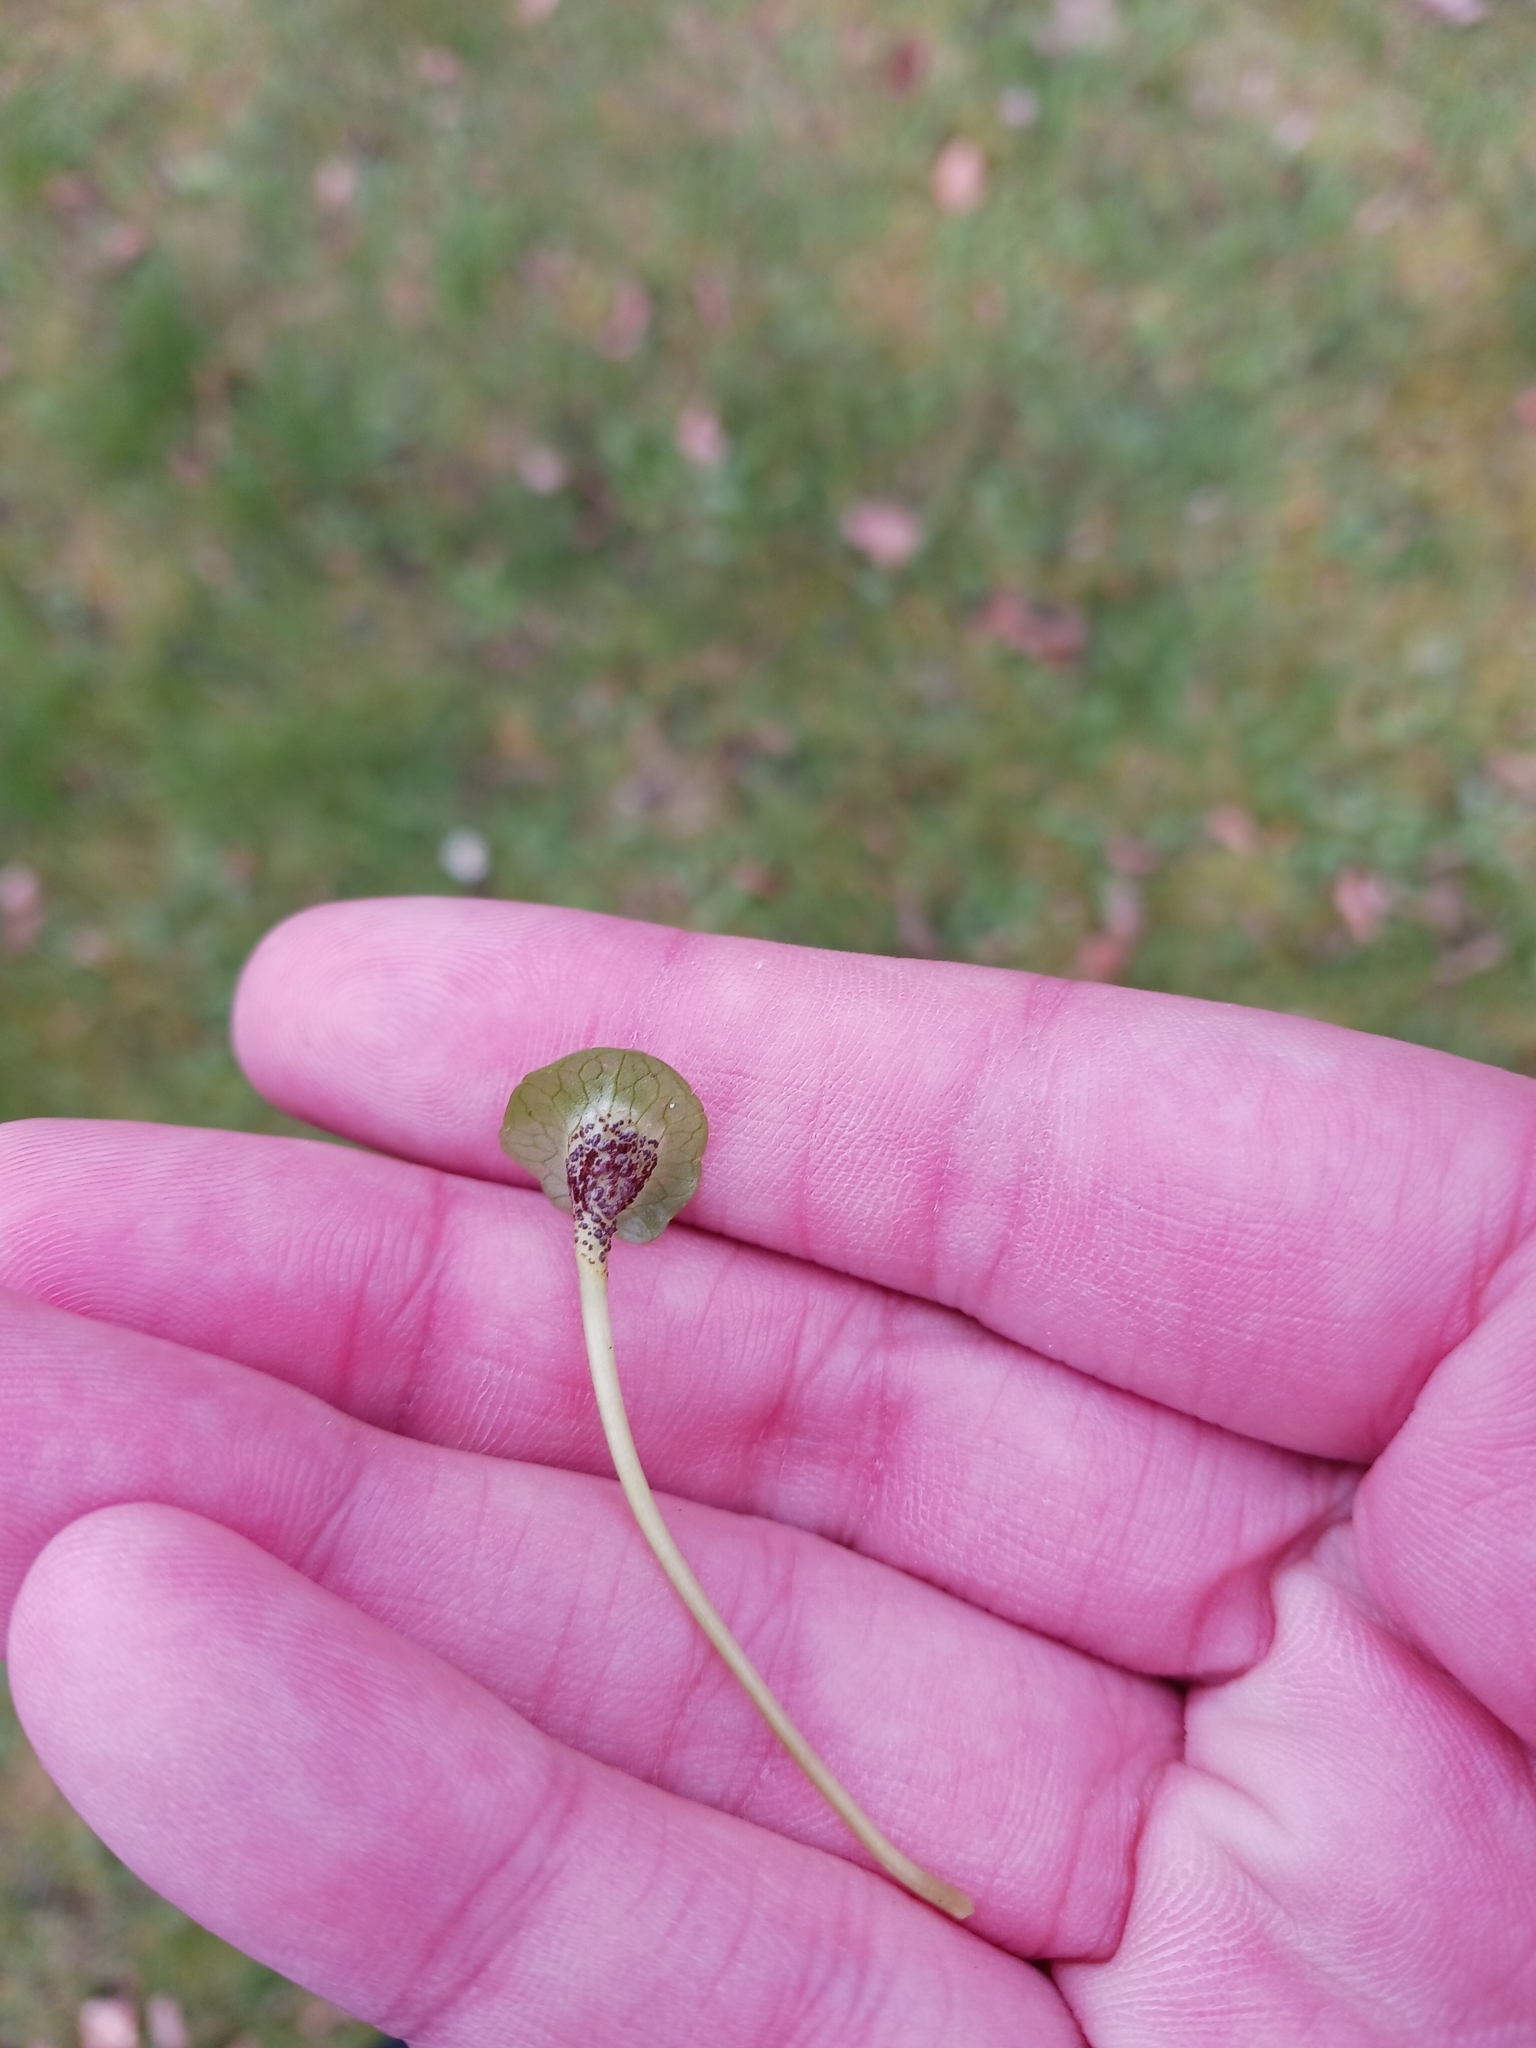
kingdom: Fungi
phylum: Basidiomycota
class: Pucciniomycetes
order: Pucciniales
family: Pucciniaceae
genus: Uromyces
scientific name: Uromyces ficariae
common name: Bitter chocolate rust
